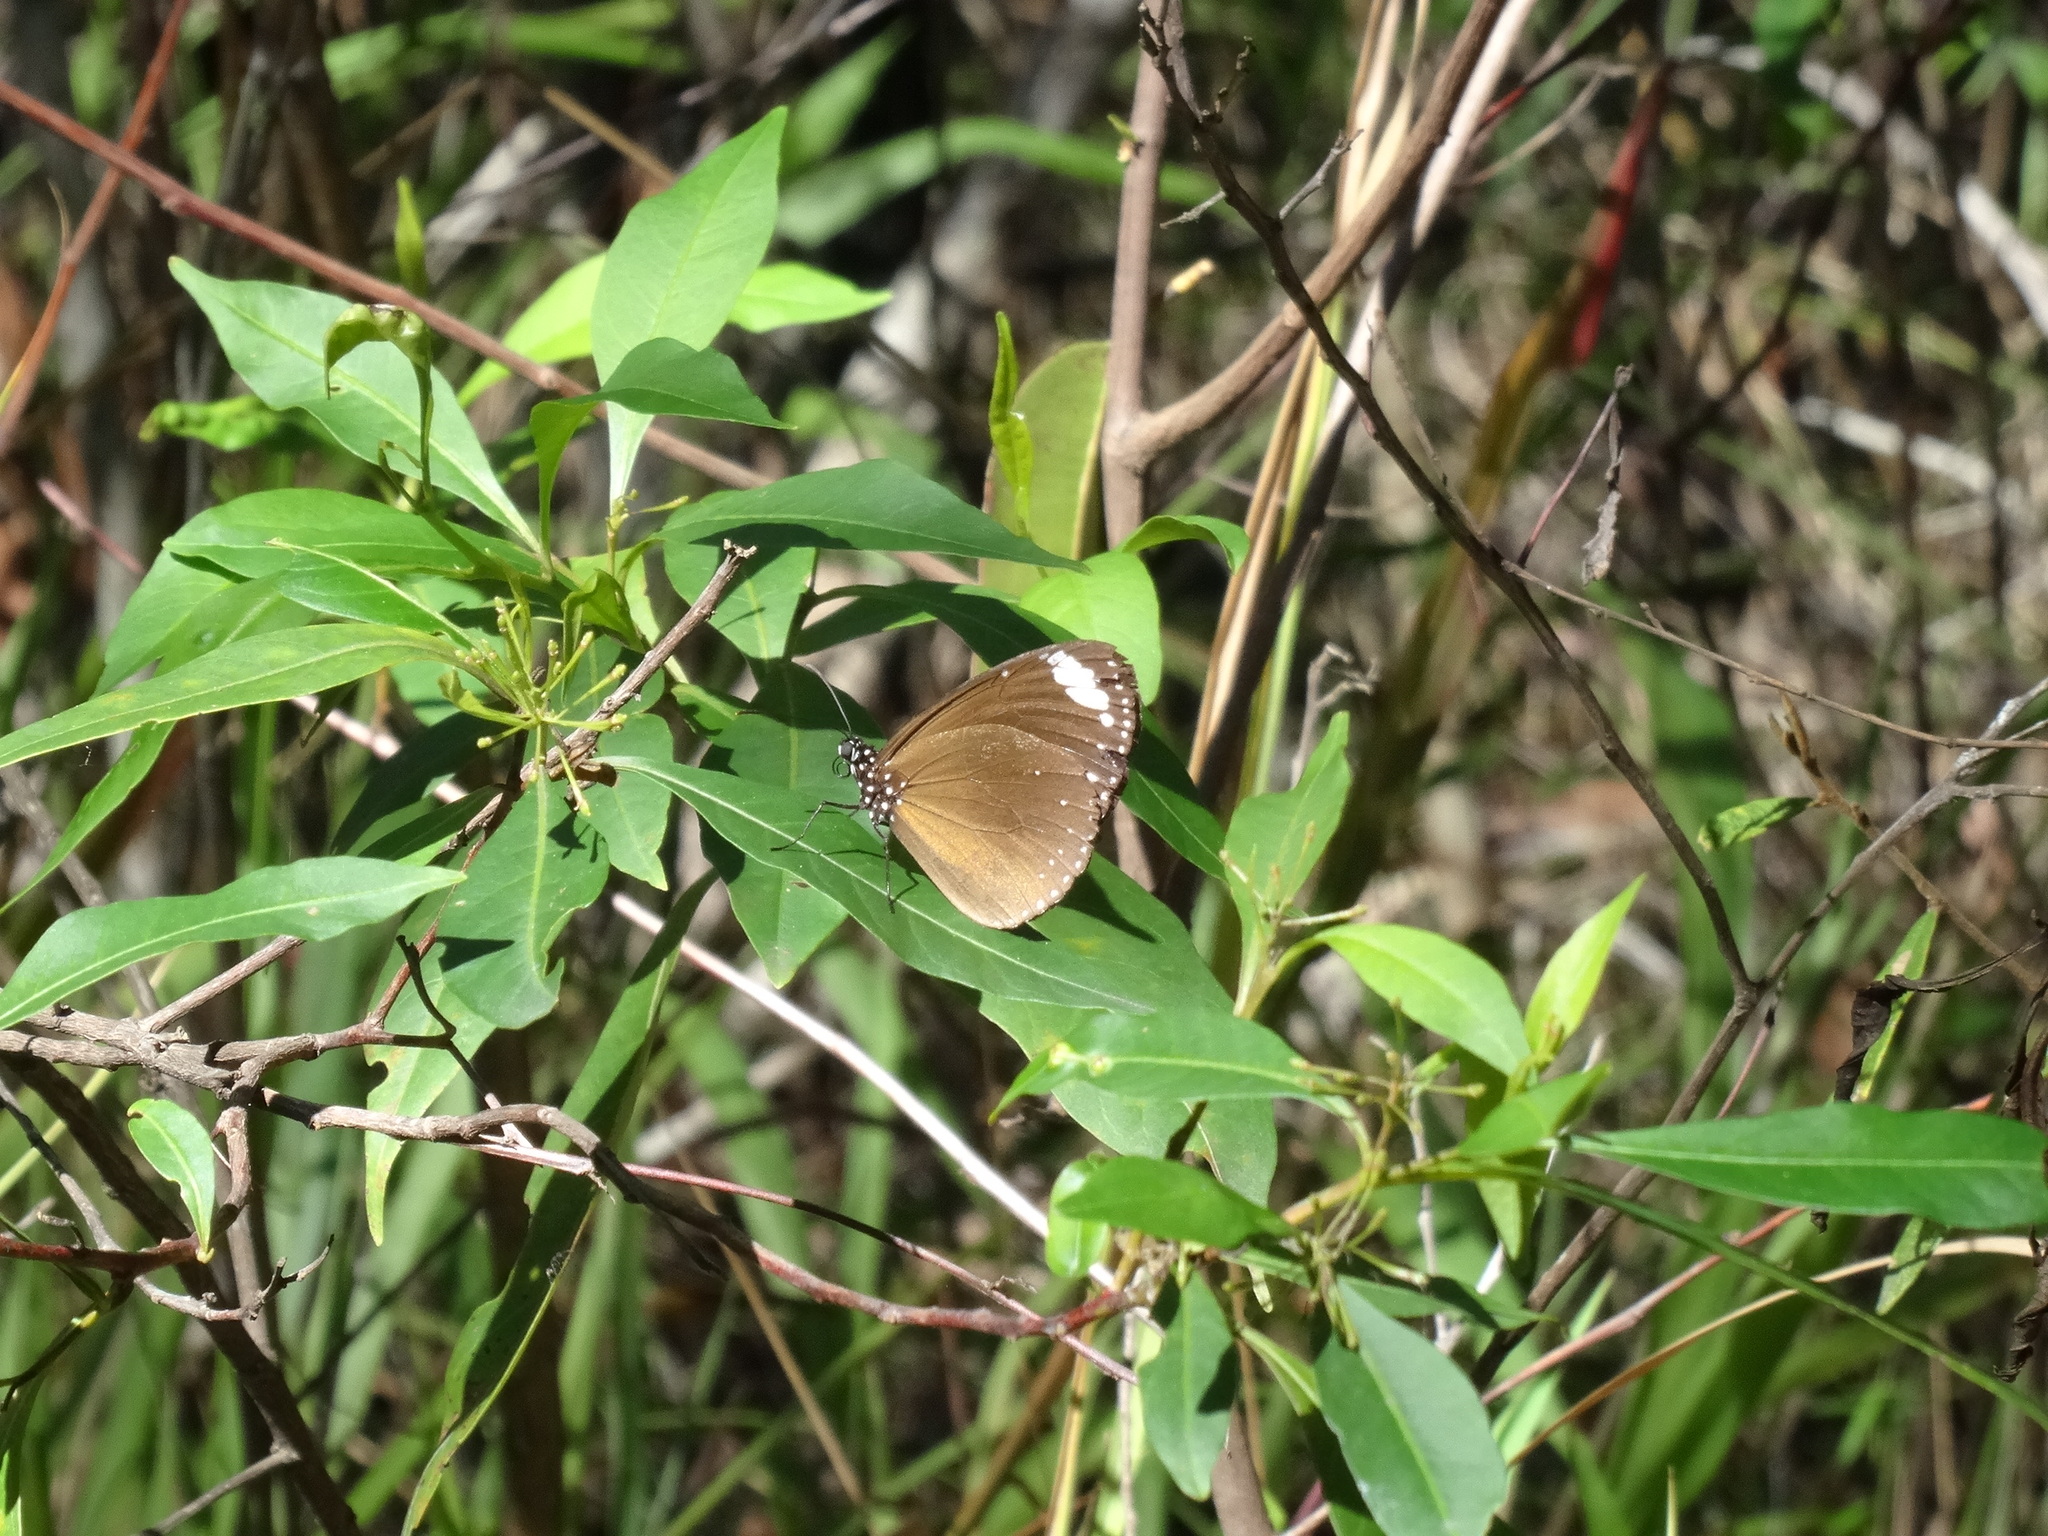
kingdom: Animalia
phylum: Arthropoda
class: Insecta
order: Lepidoptera
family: Nymphalidae
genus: Euploea
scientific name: Euploea tulliolus
